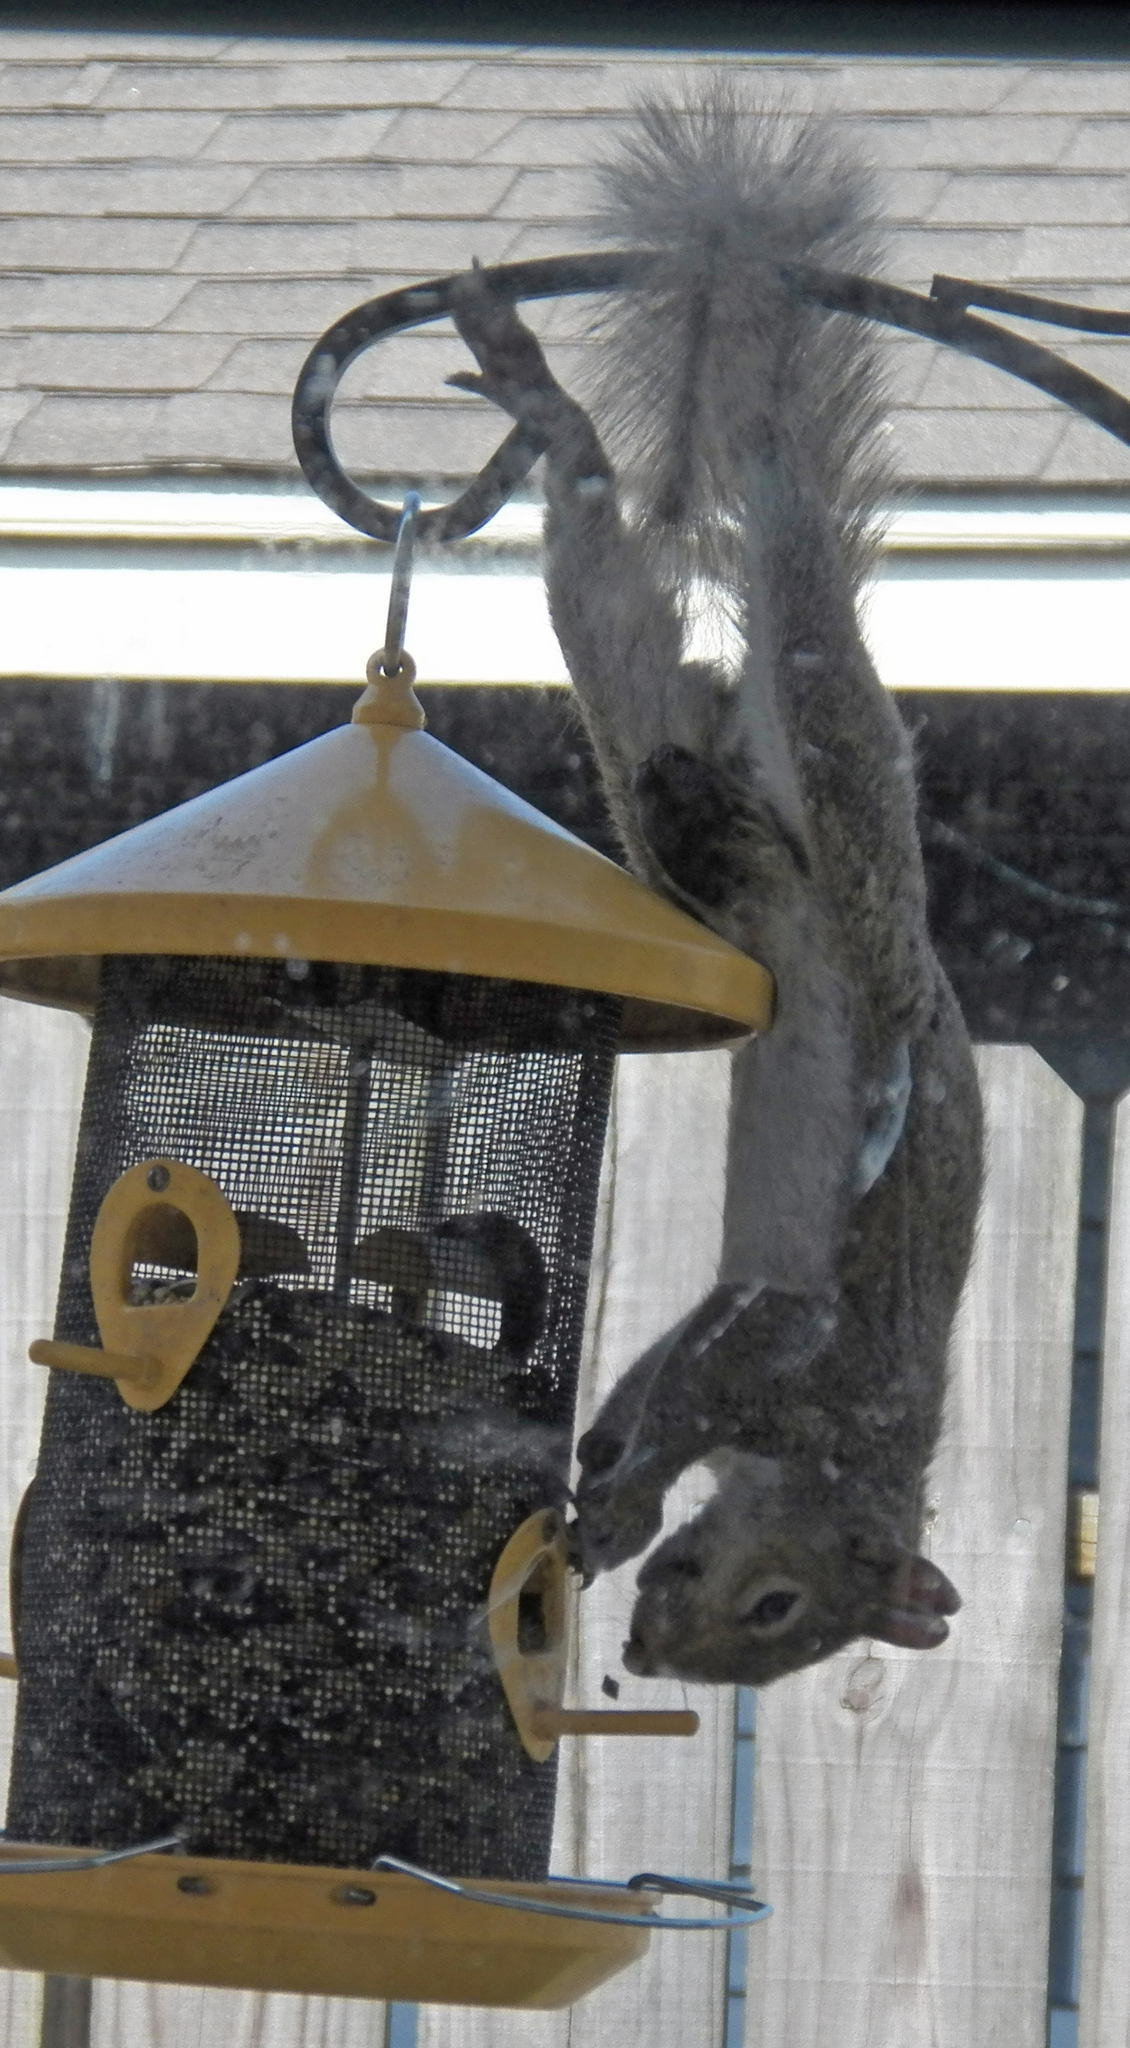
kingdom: Animalia
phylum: Chordata
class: Mammalia
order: Rodentia
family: Sciuridae
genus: Sciurus
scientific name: Sciurus carolinensis
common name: Eastern gray squirrel
